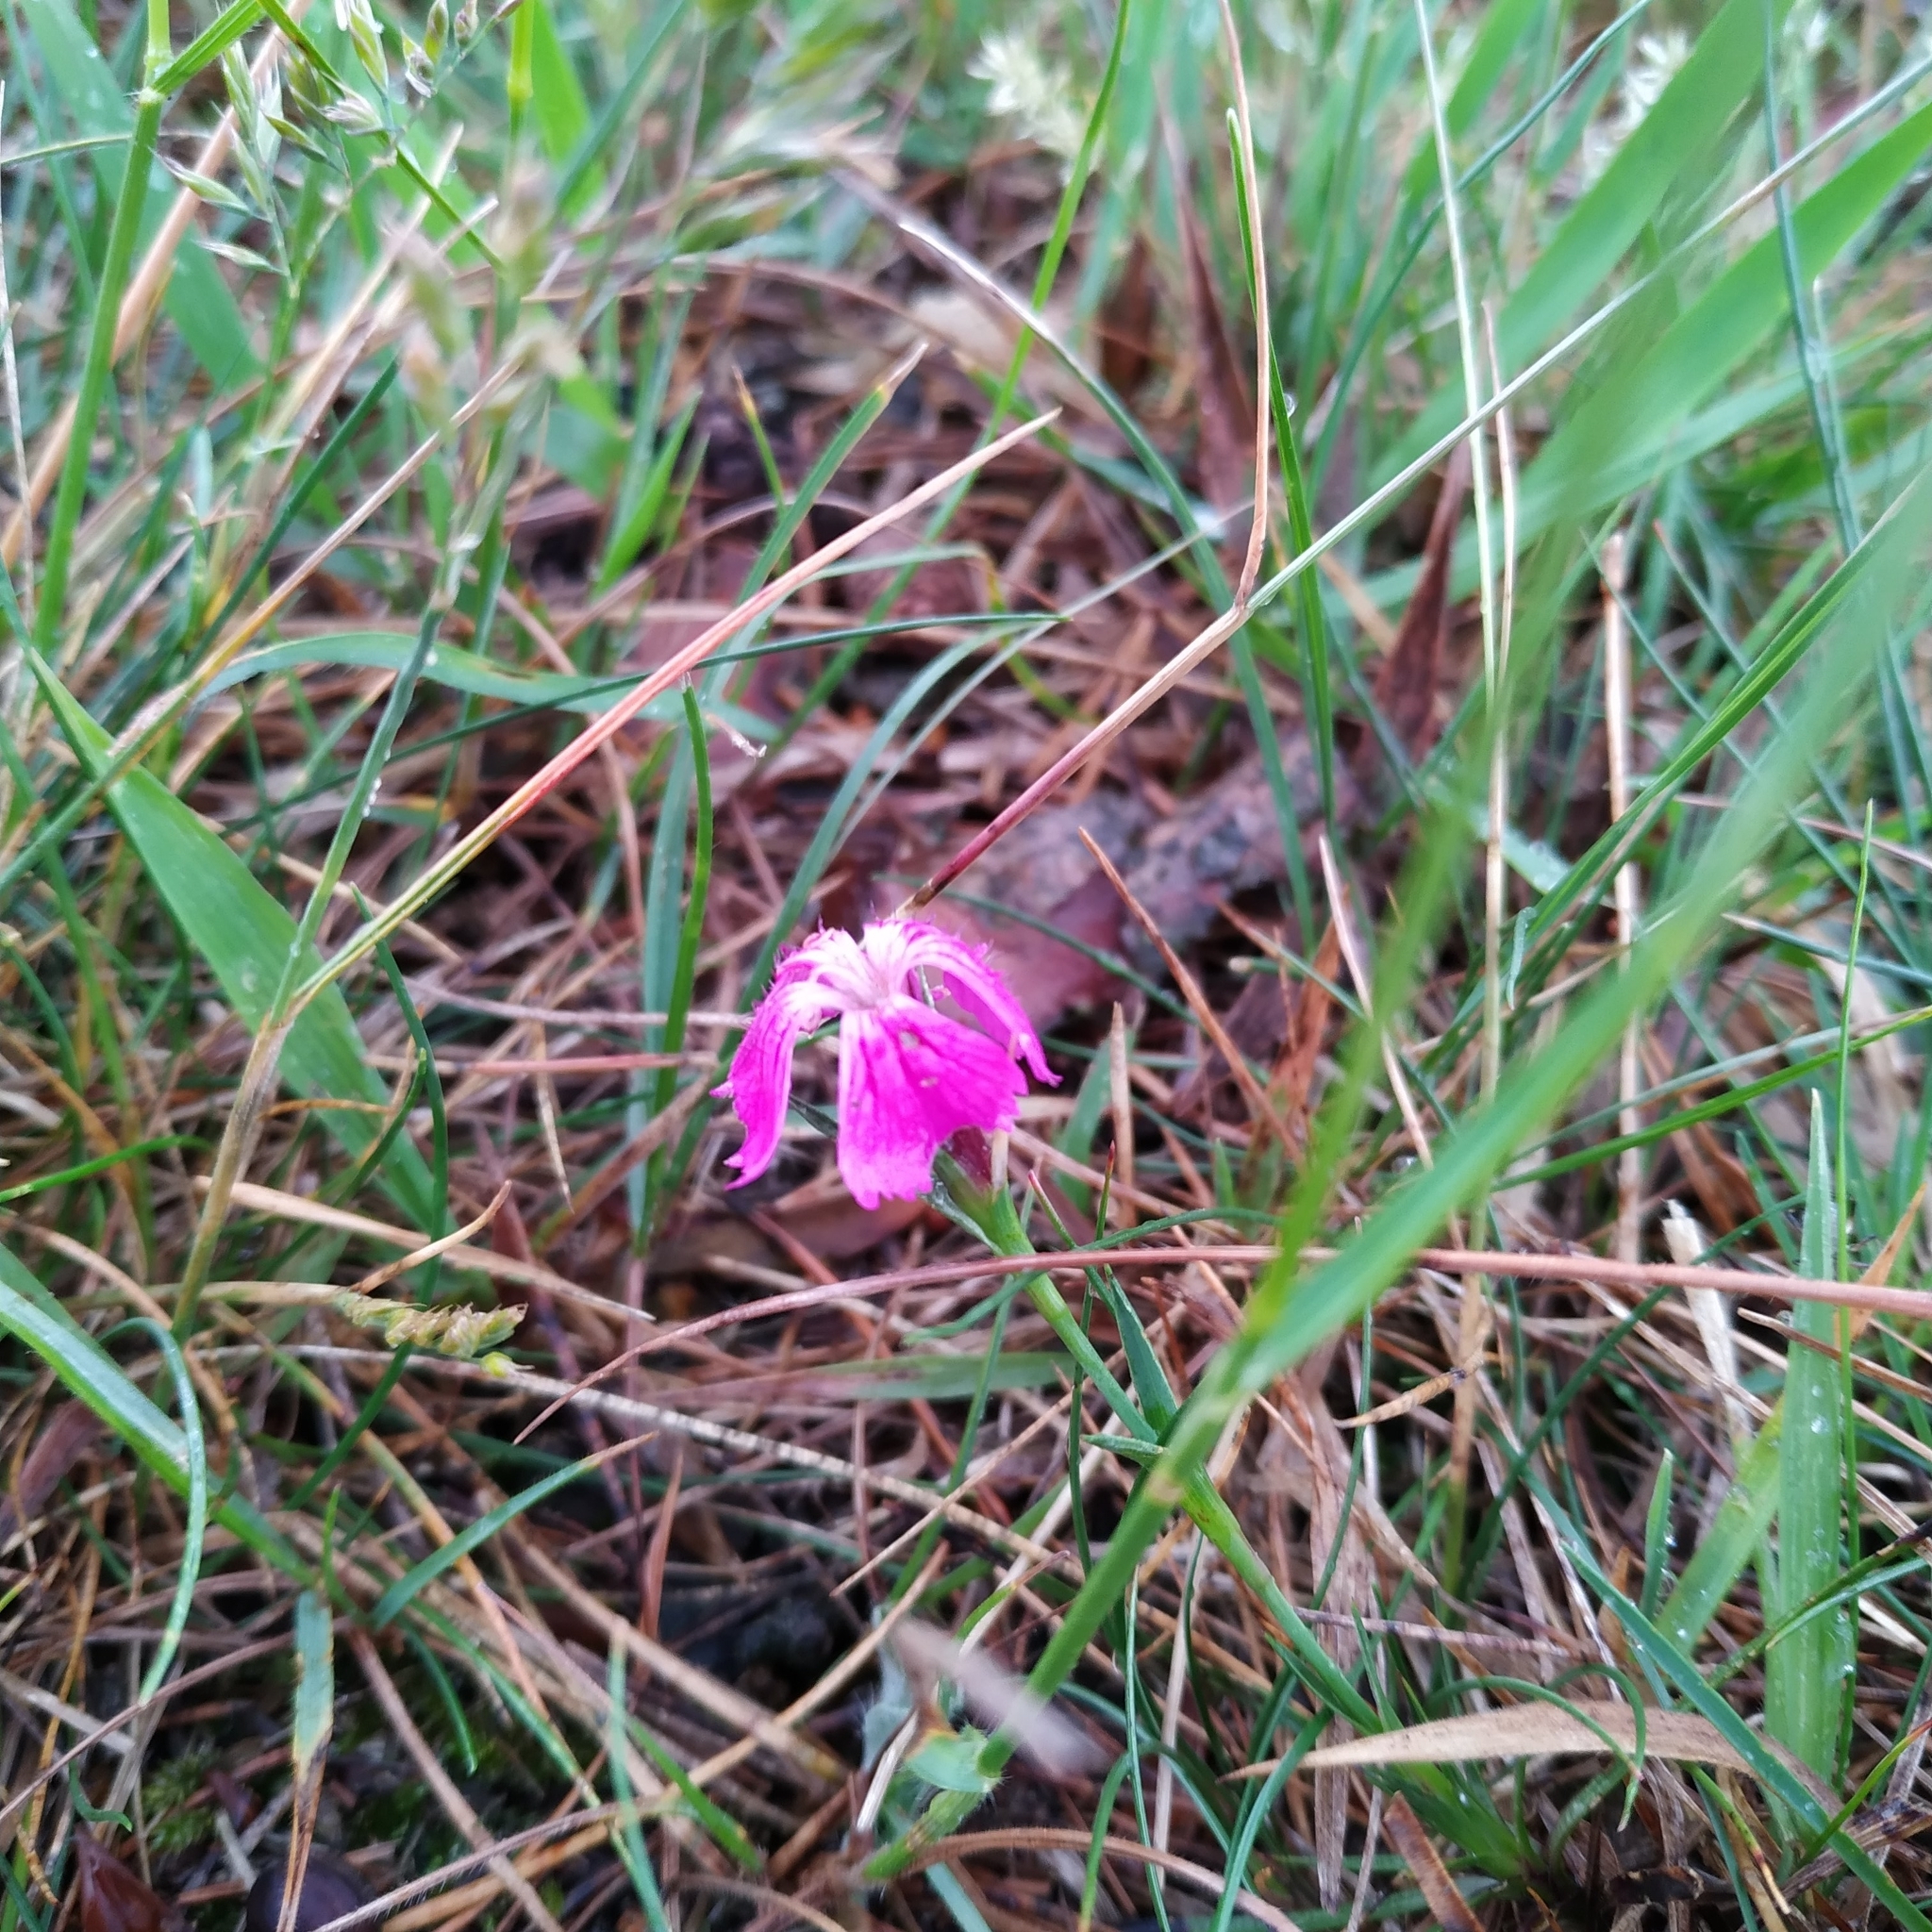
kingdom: Plantae
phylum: Tracheophyta
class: Magnoliopsida
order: Caryophyllales
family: Caryophyllaceae
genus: Dianthus
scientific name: Dianthus carthusianorum
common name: Carthusian pink
